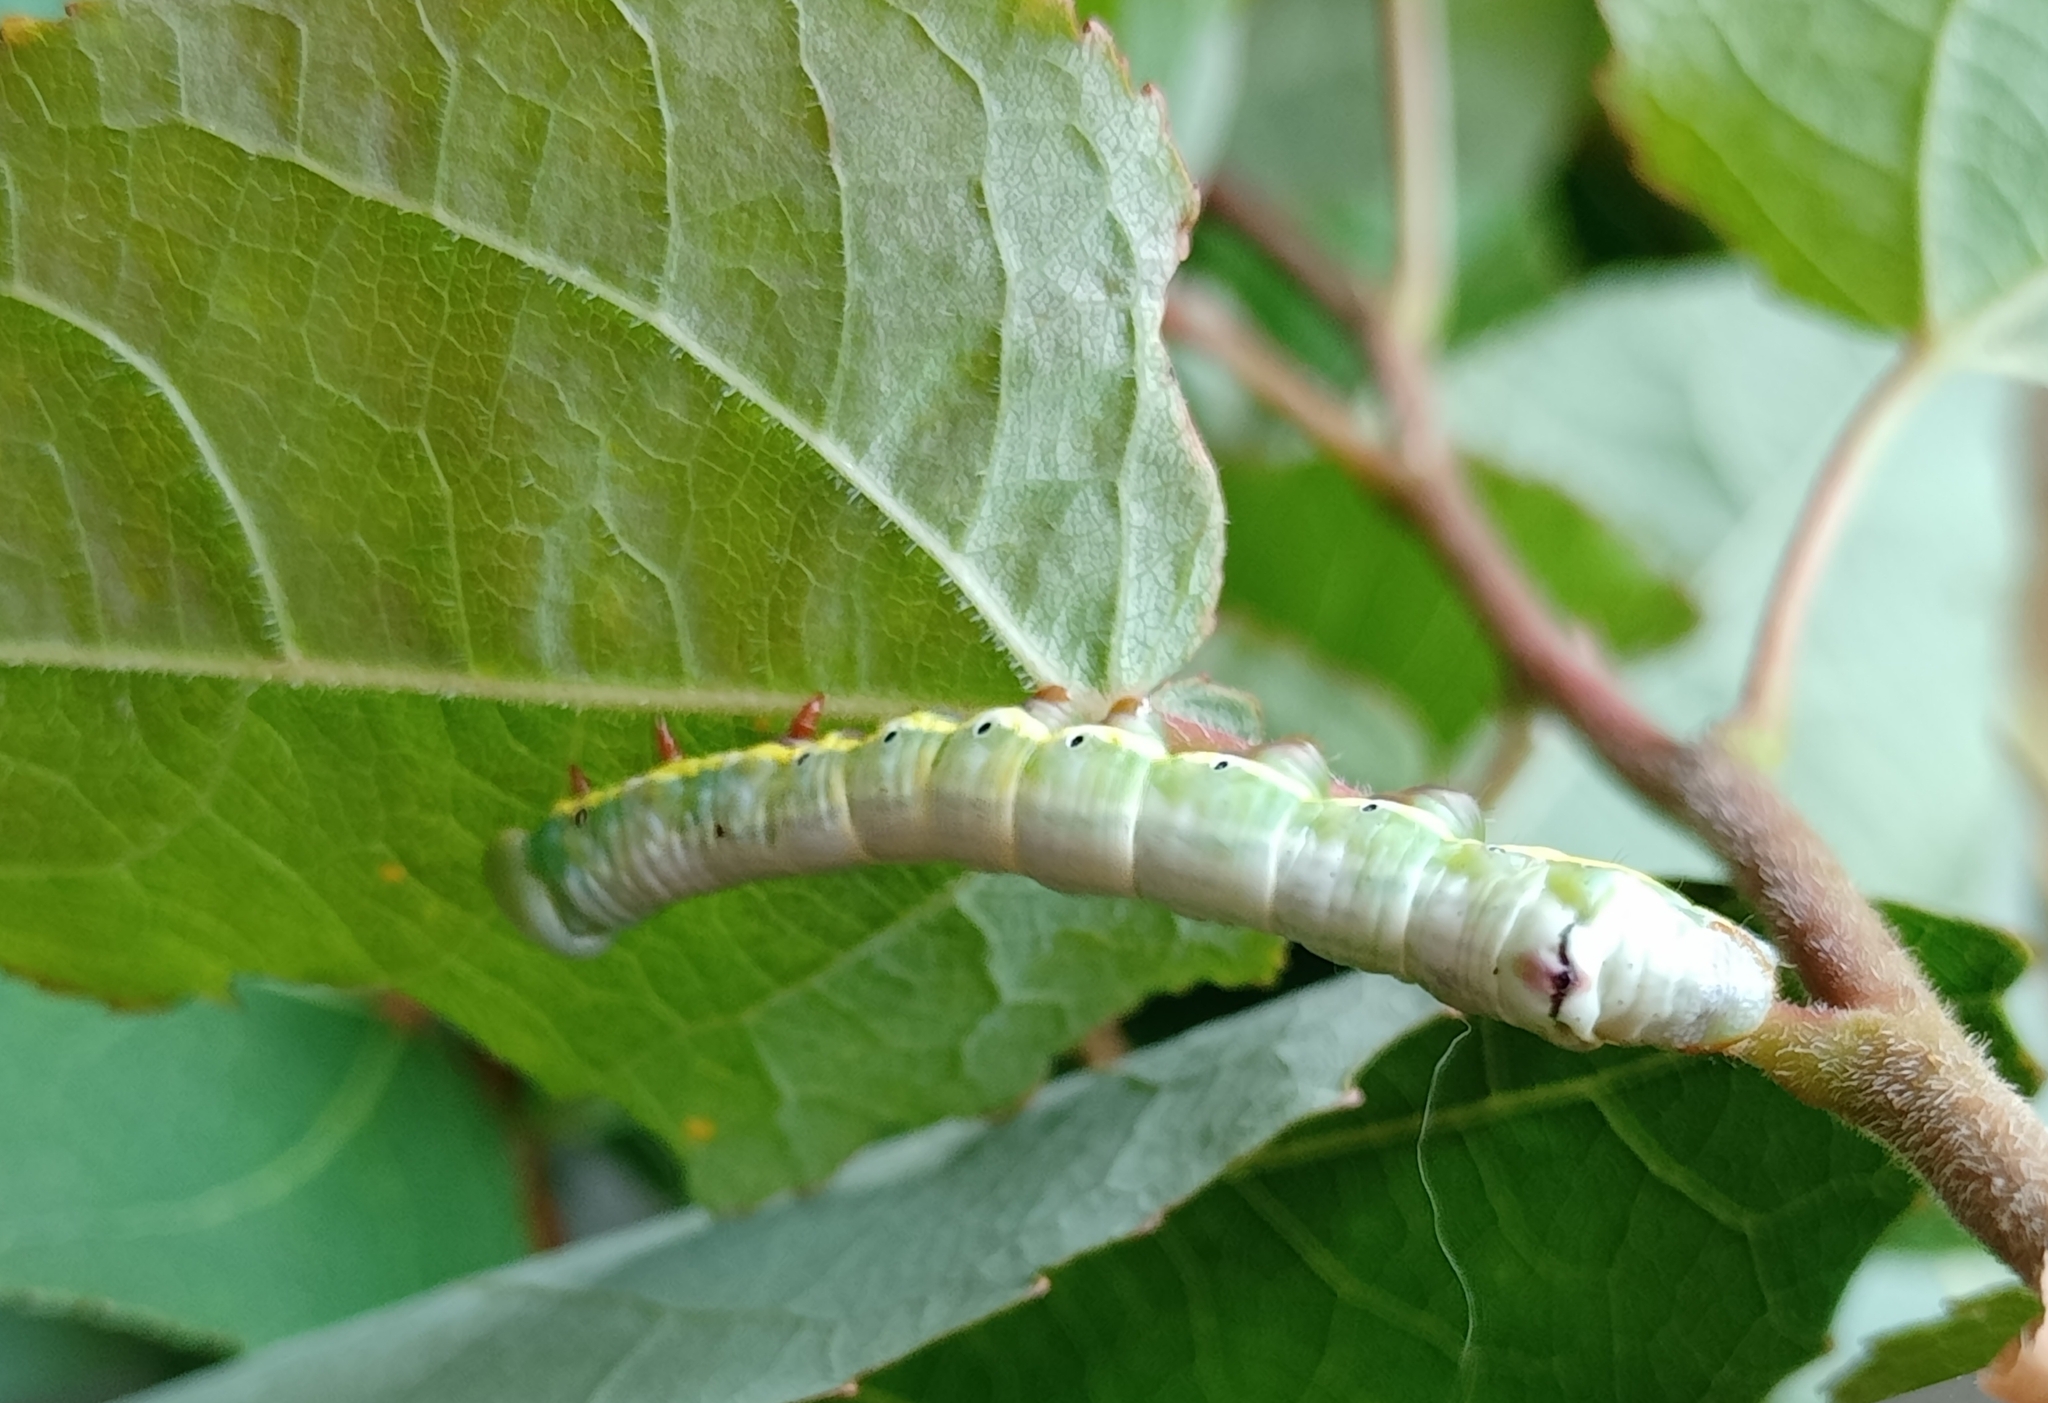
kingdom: Animalia
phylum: Arthropoda
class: Insecta
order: Lepidoptera
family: Notodontidae
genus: Pheosia
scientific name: Pheosia tremula
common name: Swallow prominent
